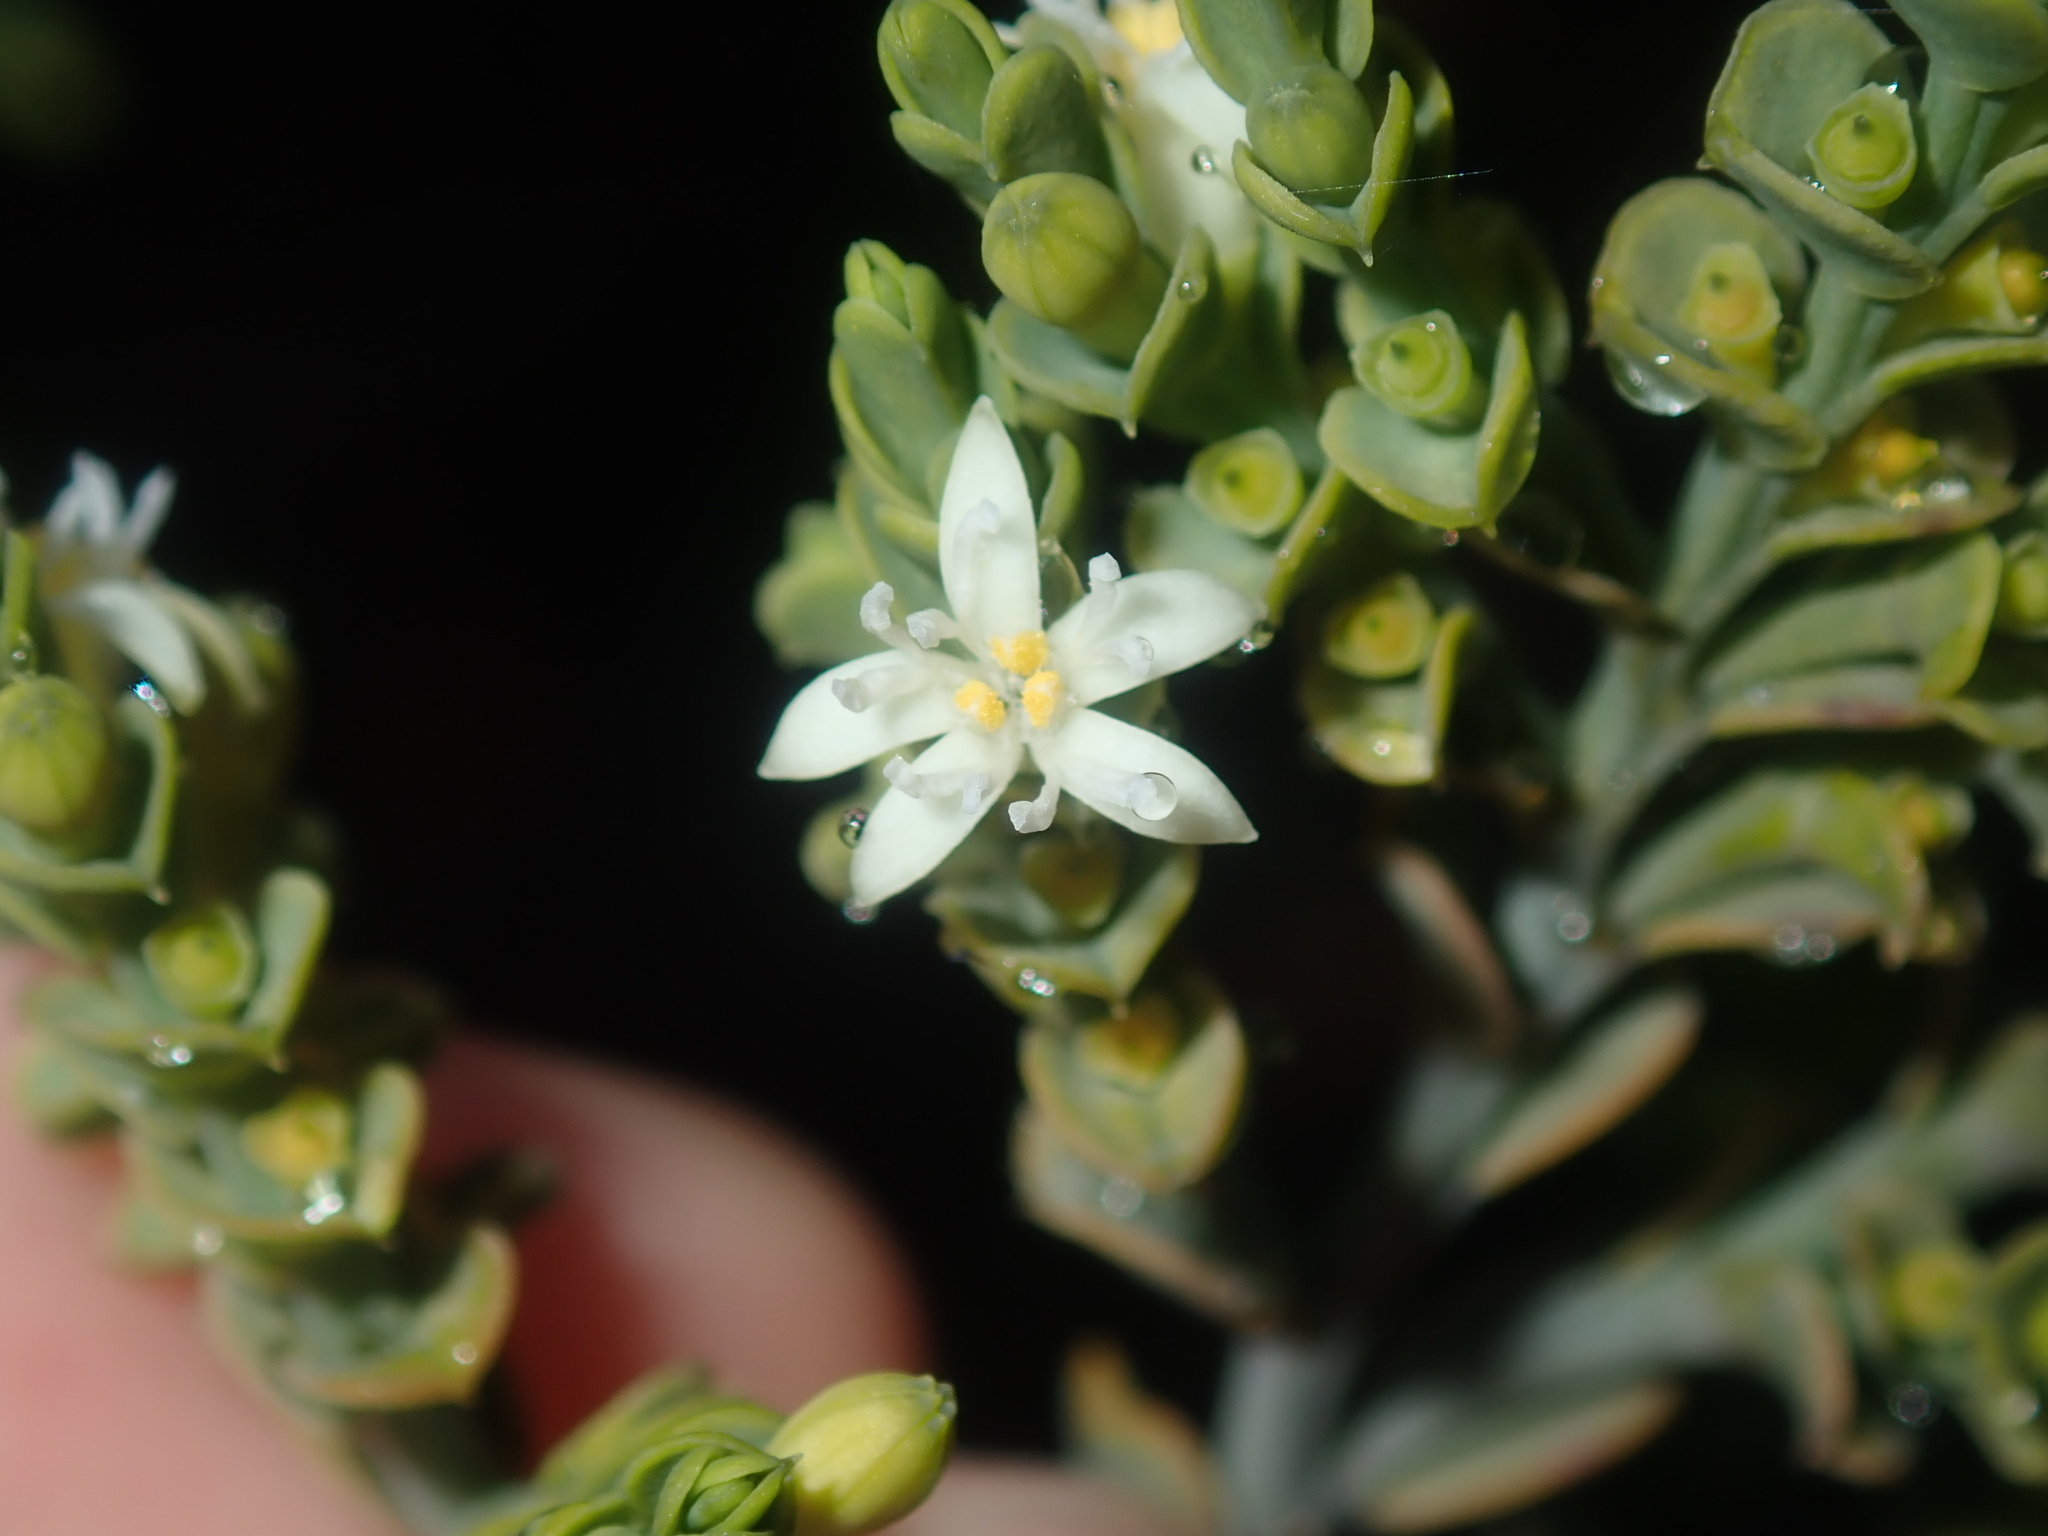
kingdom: Plantae
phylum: Tracheophyta
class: Magnoliopsida
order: Santalales
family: Olacaceae
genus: Olax
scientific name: Olax benthamiana
